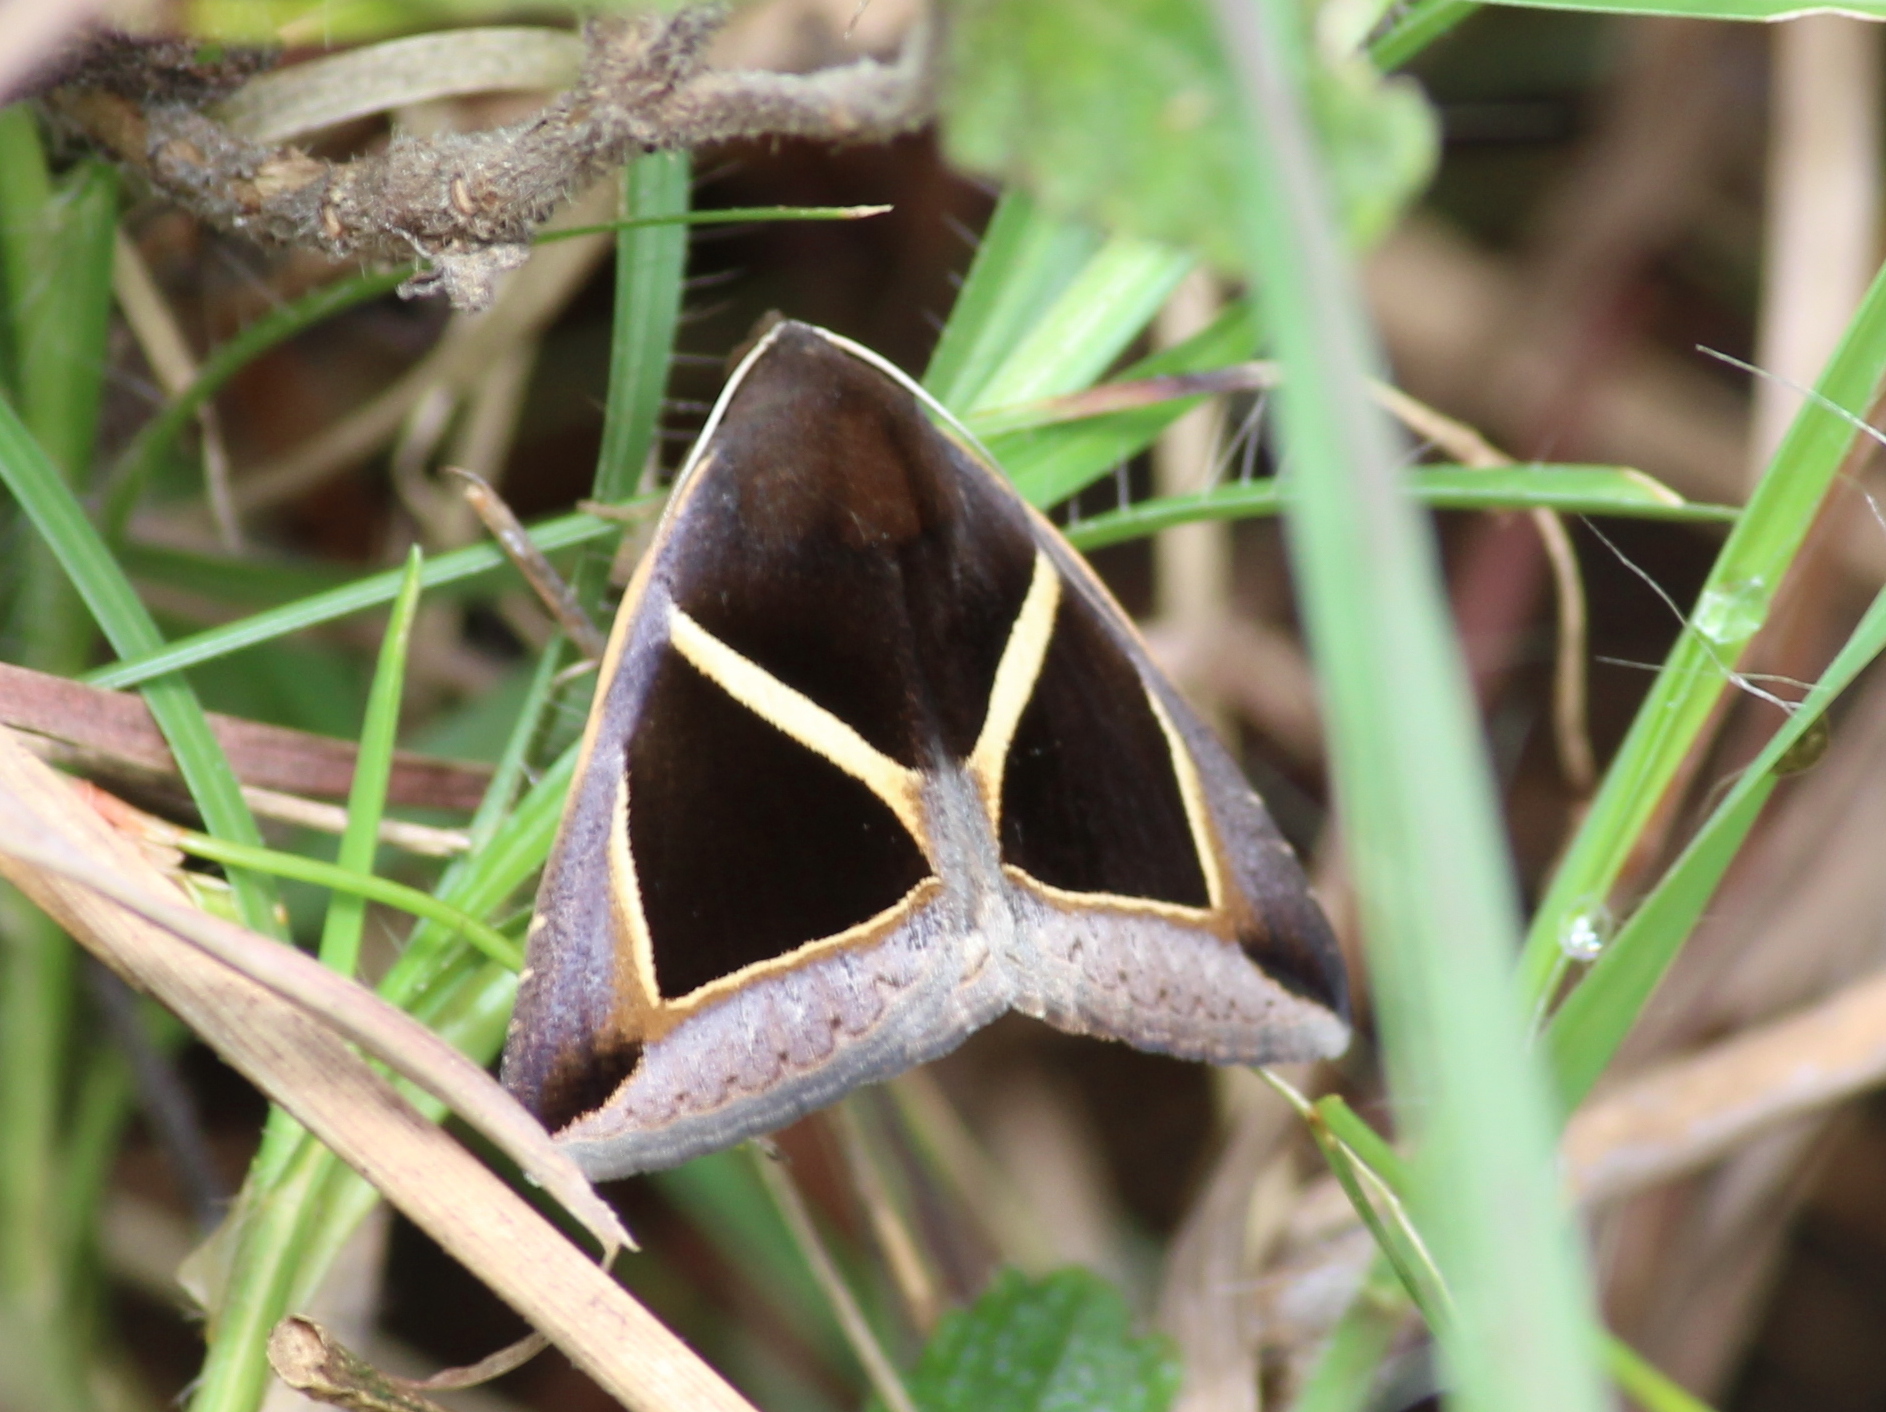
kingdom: Animalia
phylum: Arthropoda
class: Insecta
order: Lepidoptera
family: Erebidae
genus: Chalciope
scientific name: Chalciope mygdon
